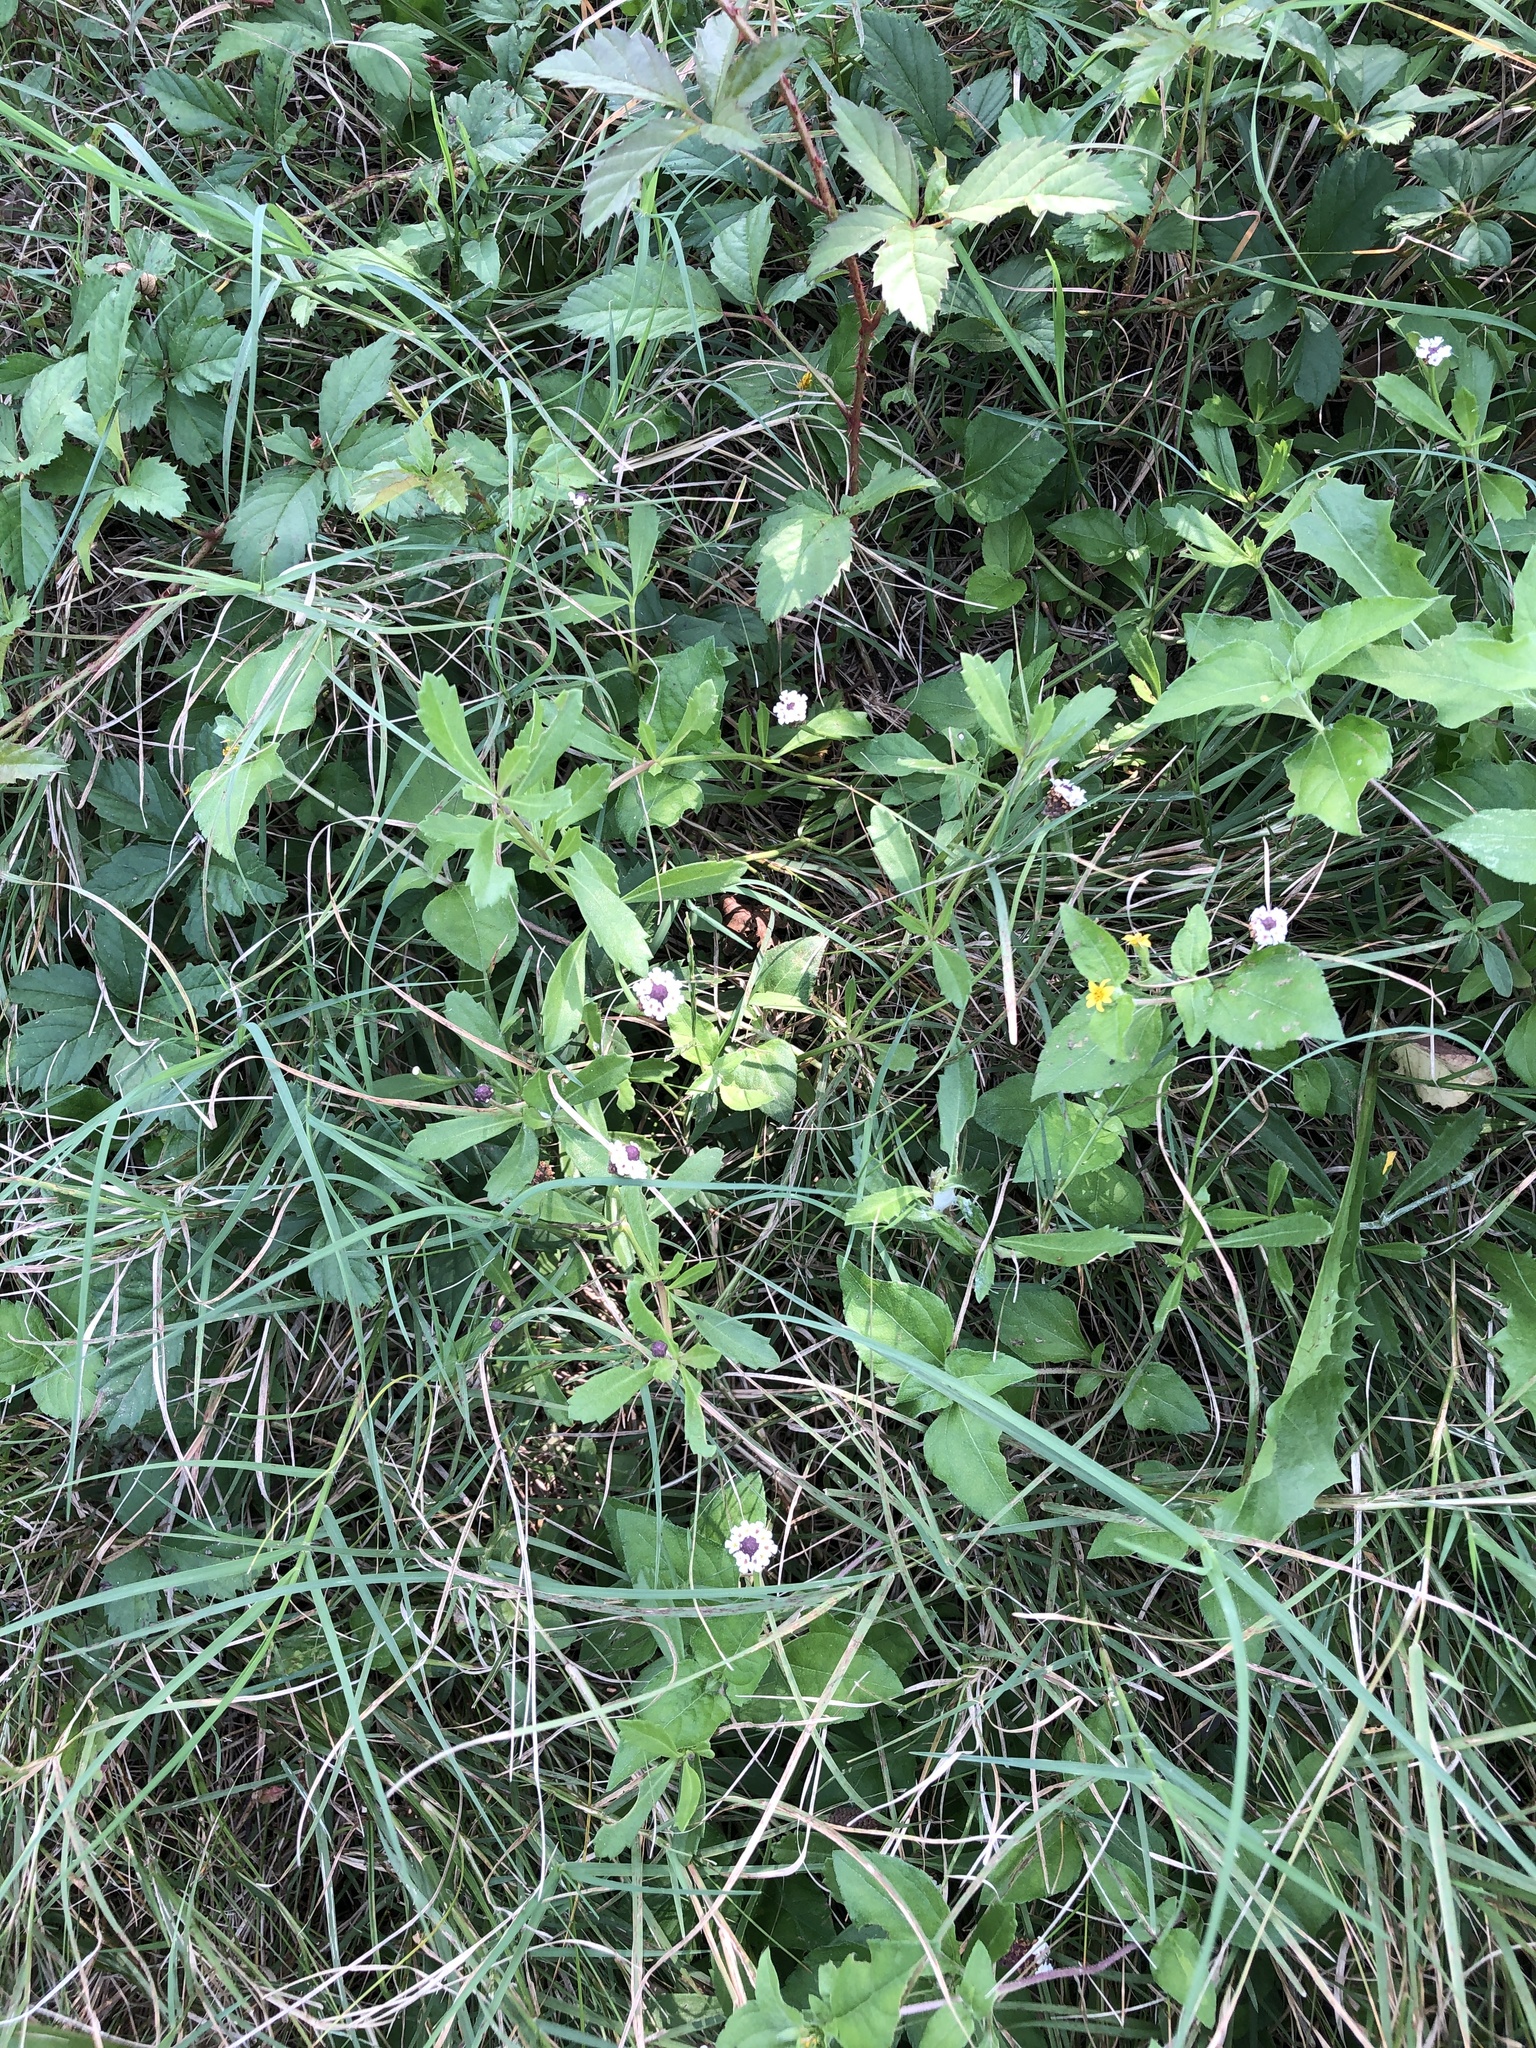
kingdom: Plantae
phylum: Tracheophyta
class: Magnoliopsida
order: Lamiales
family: Verbenaceae
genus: Phyla
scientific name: Phyla nodiflora
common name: Frogfruit
